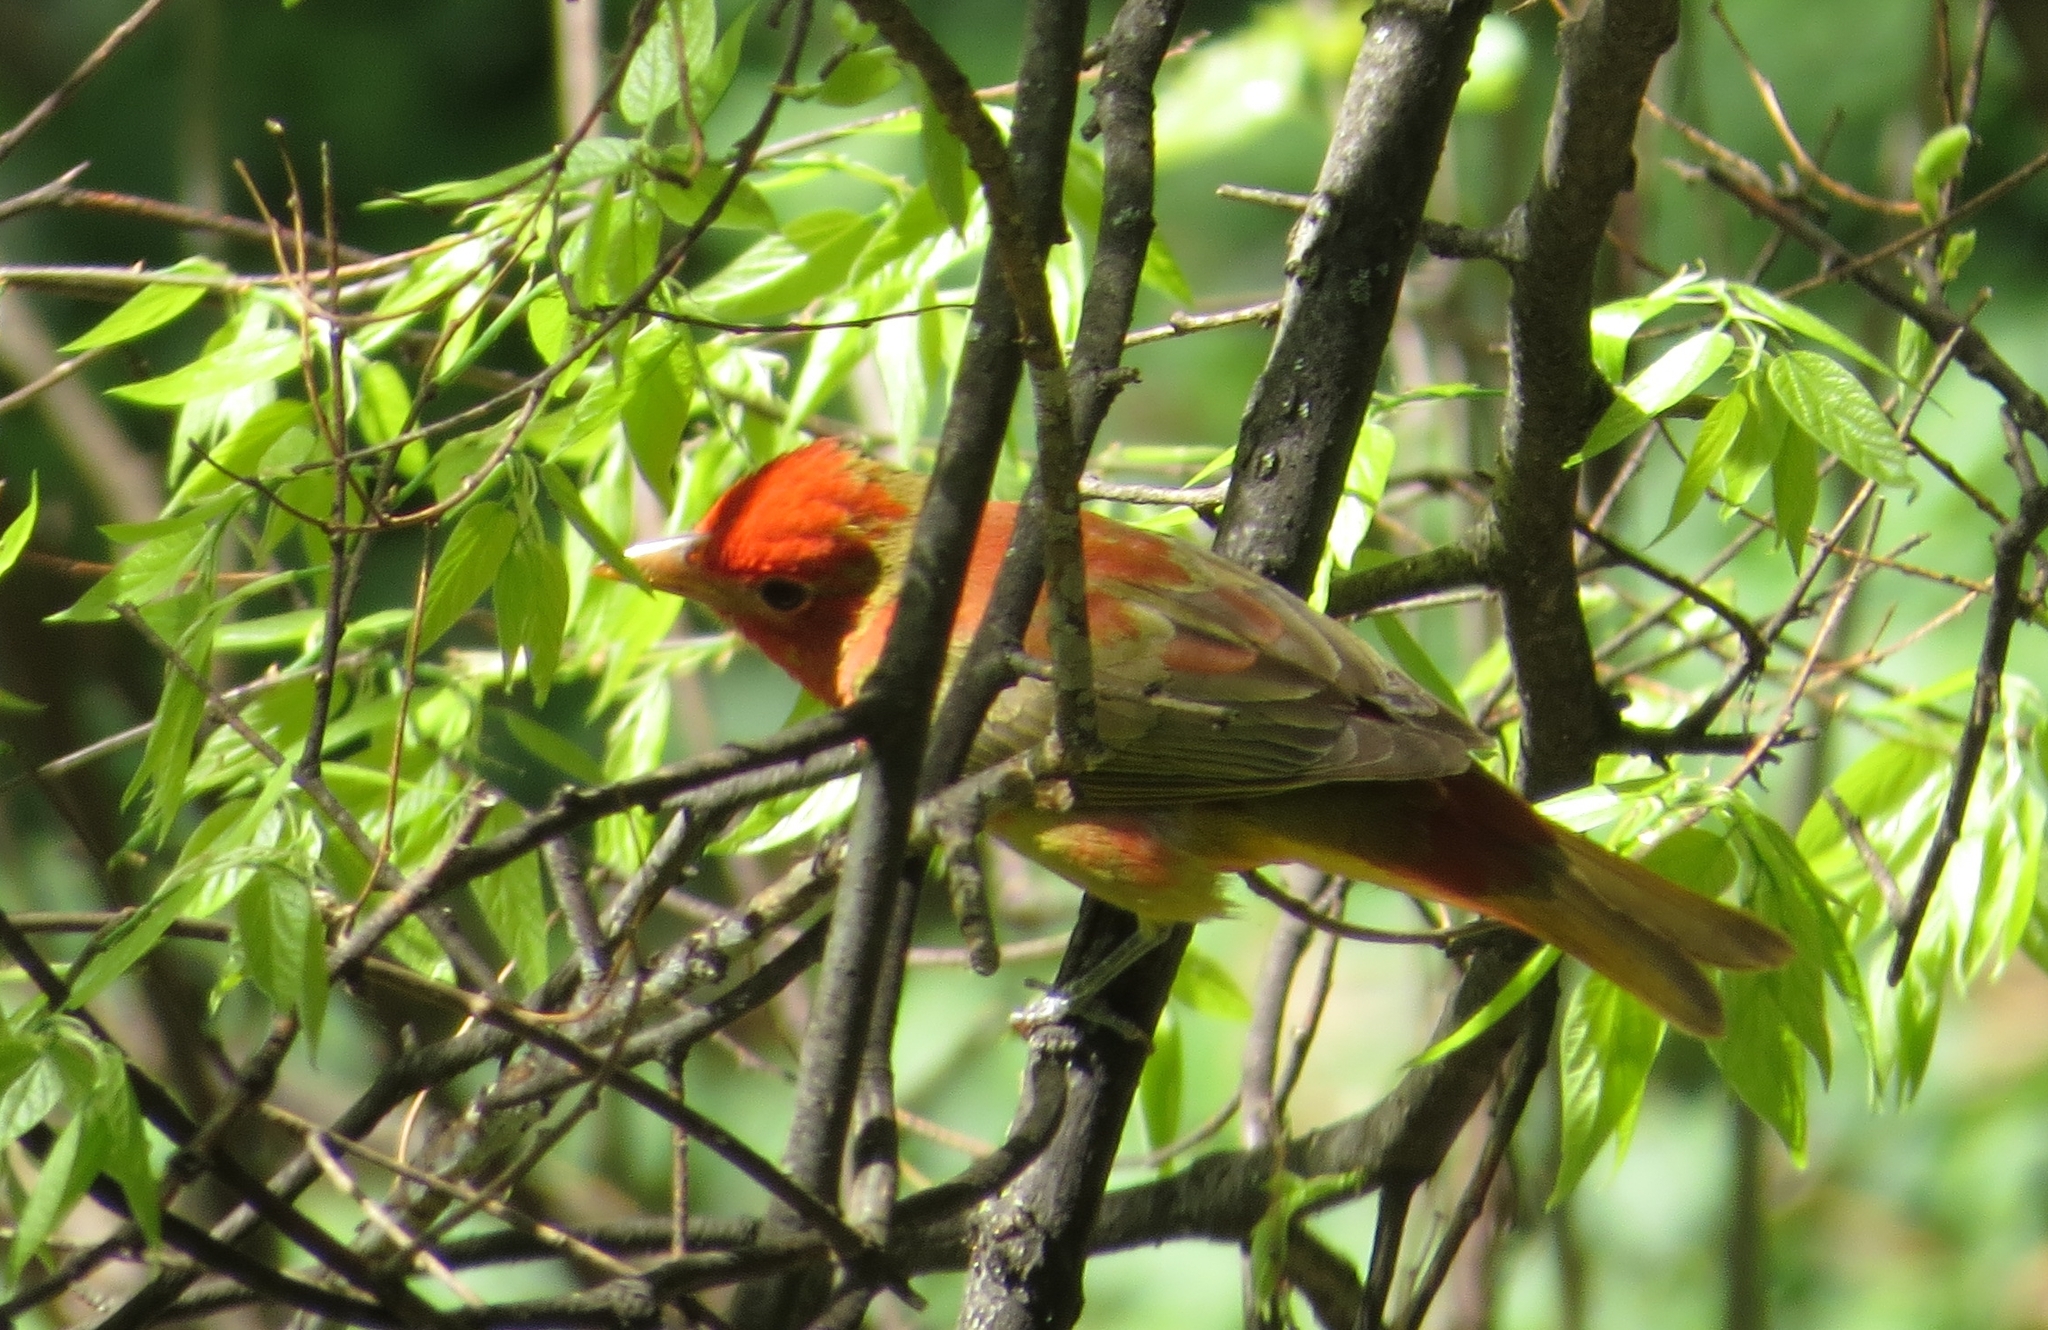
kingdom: Animalia
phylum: Chordata
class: Aves
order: Passeriformes
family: Cardinalidae
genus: Piranga
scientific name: Piranga rubra
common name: Summer tanager
